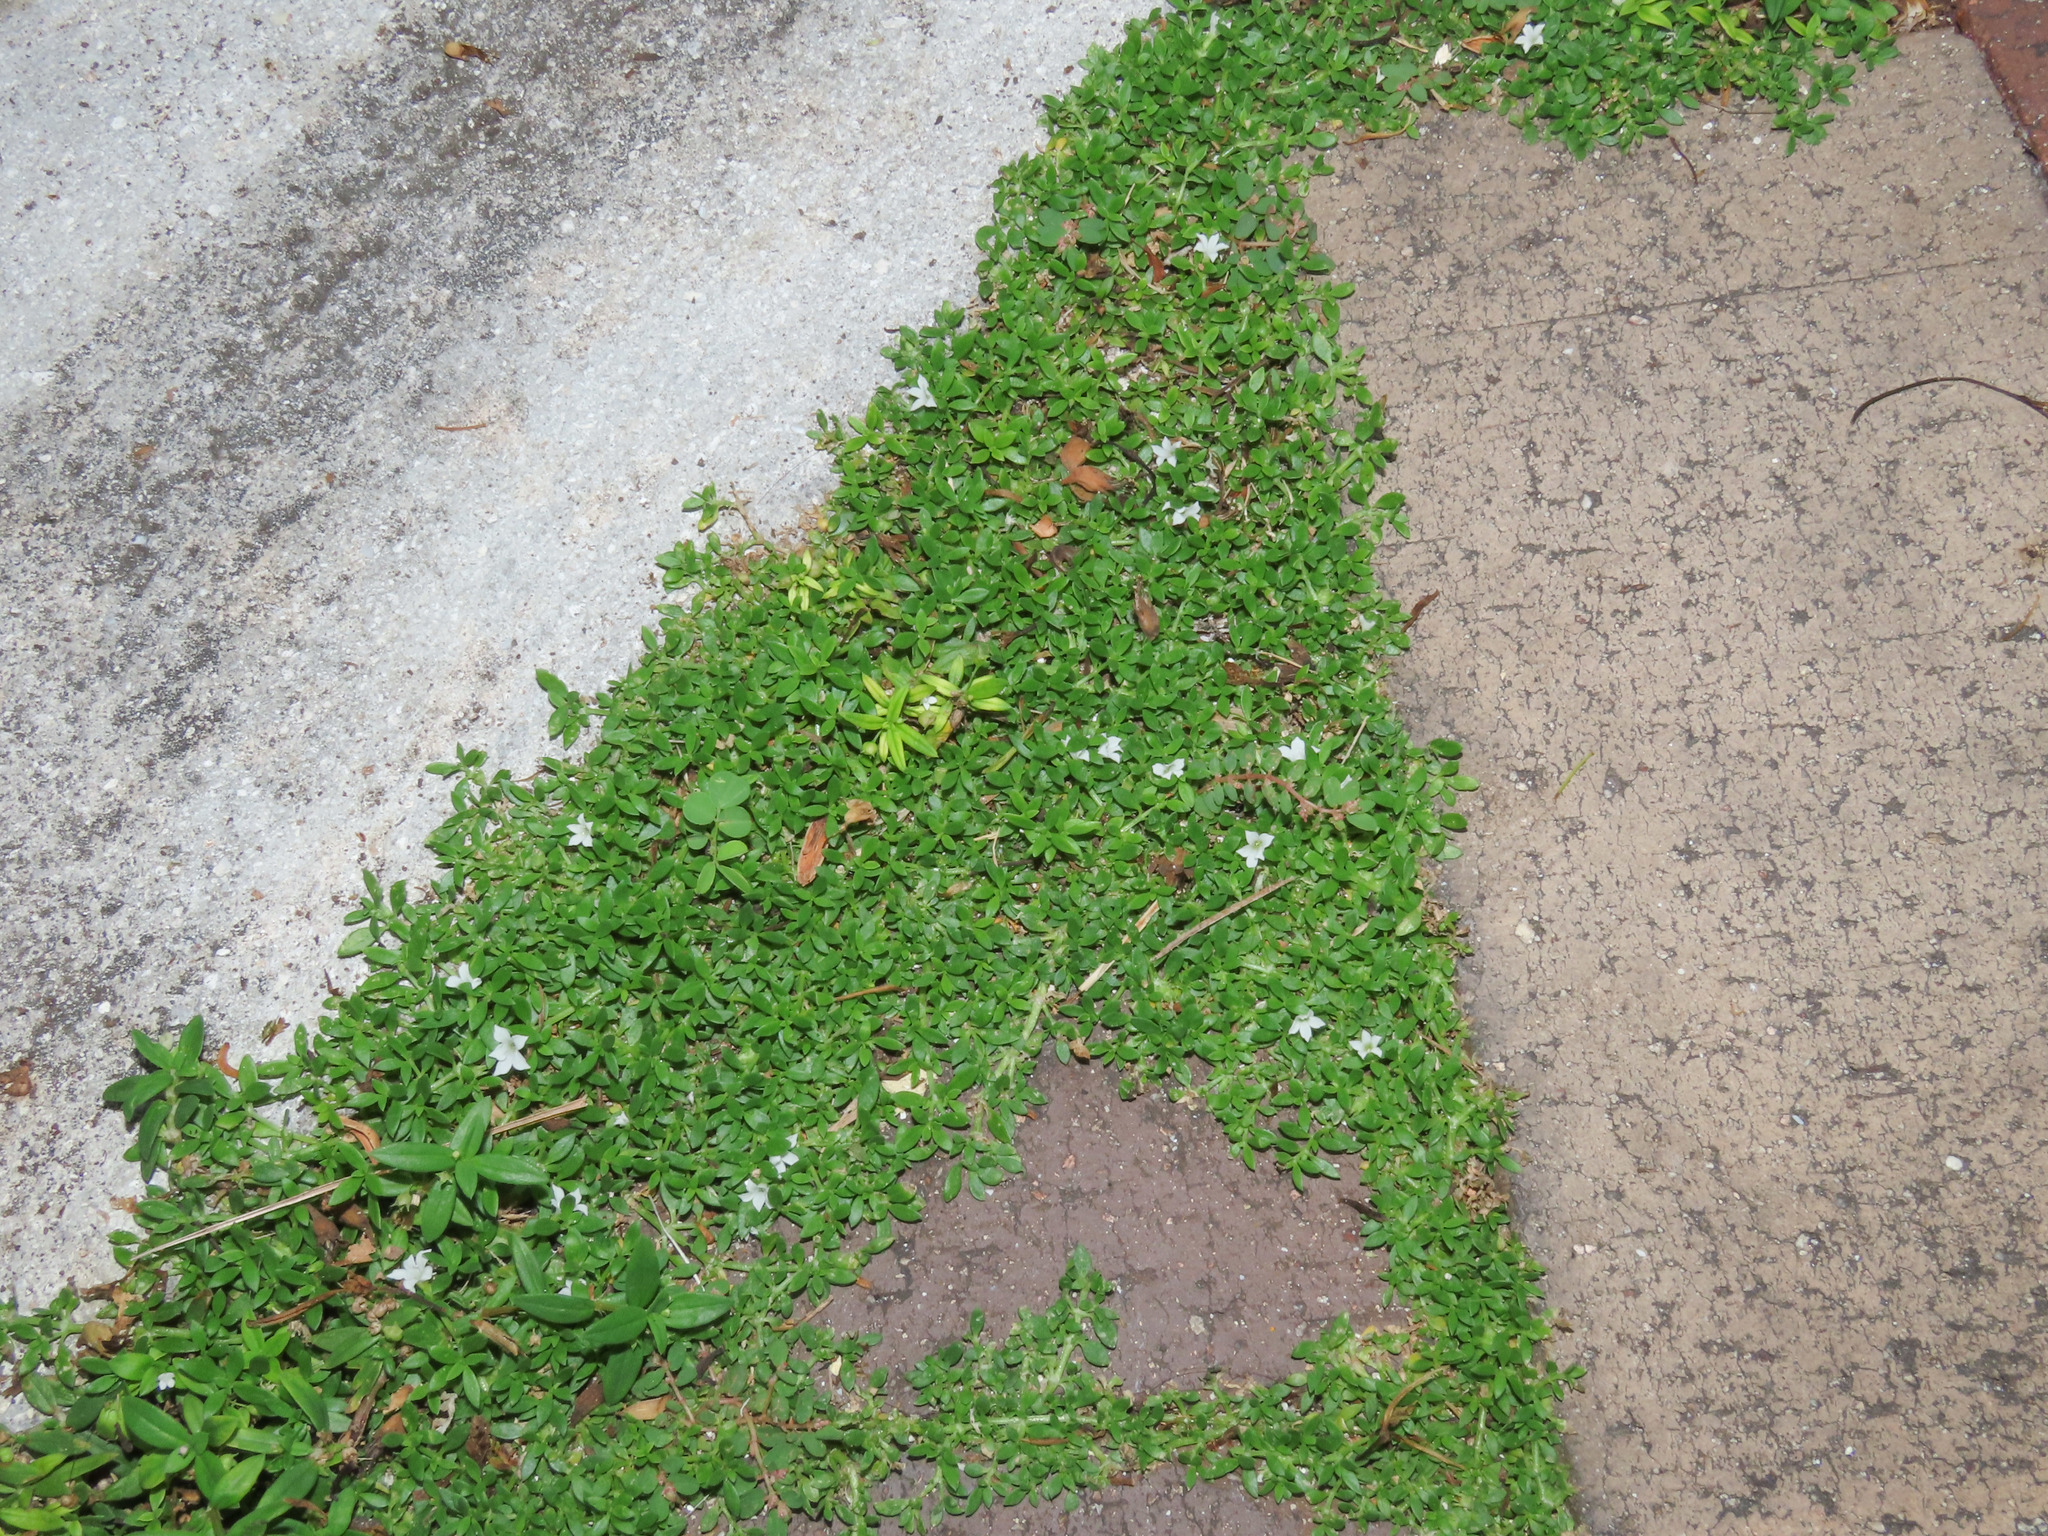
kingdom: Plantae
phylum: Tracheophyta
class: Magnoliopsida
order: Gentianales
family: Rubiaceae
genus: Dentella
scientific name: Dentella repens
